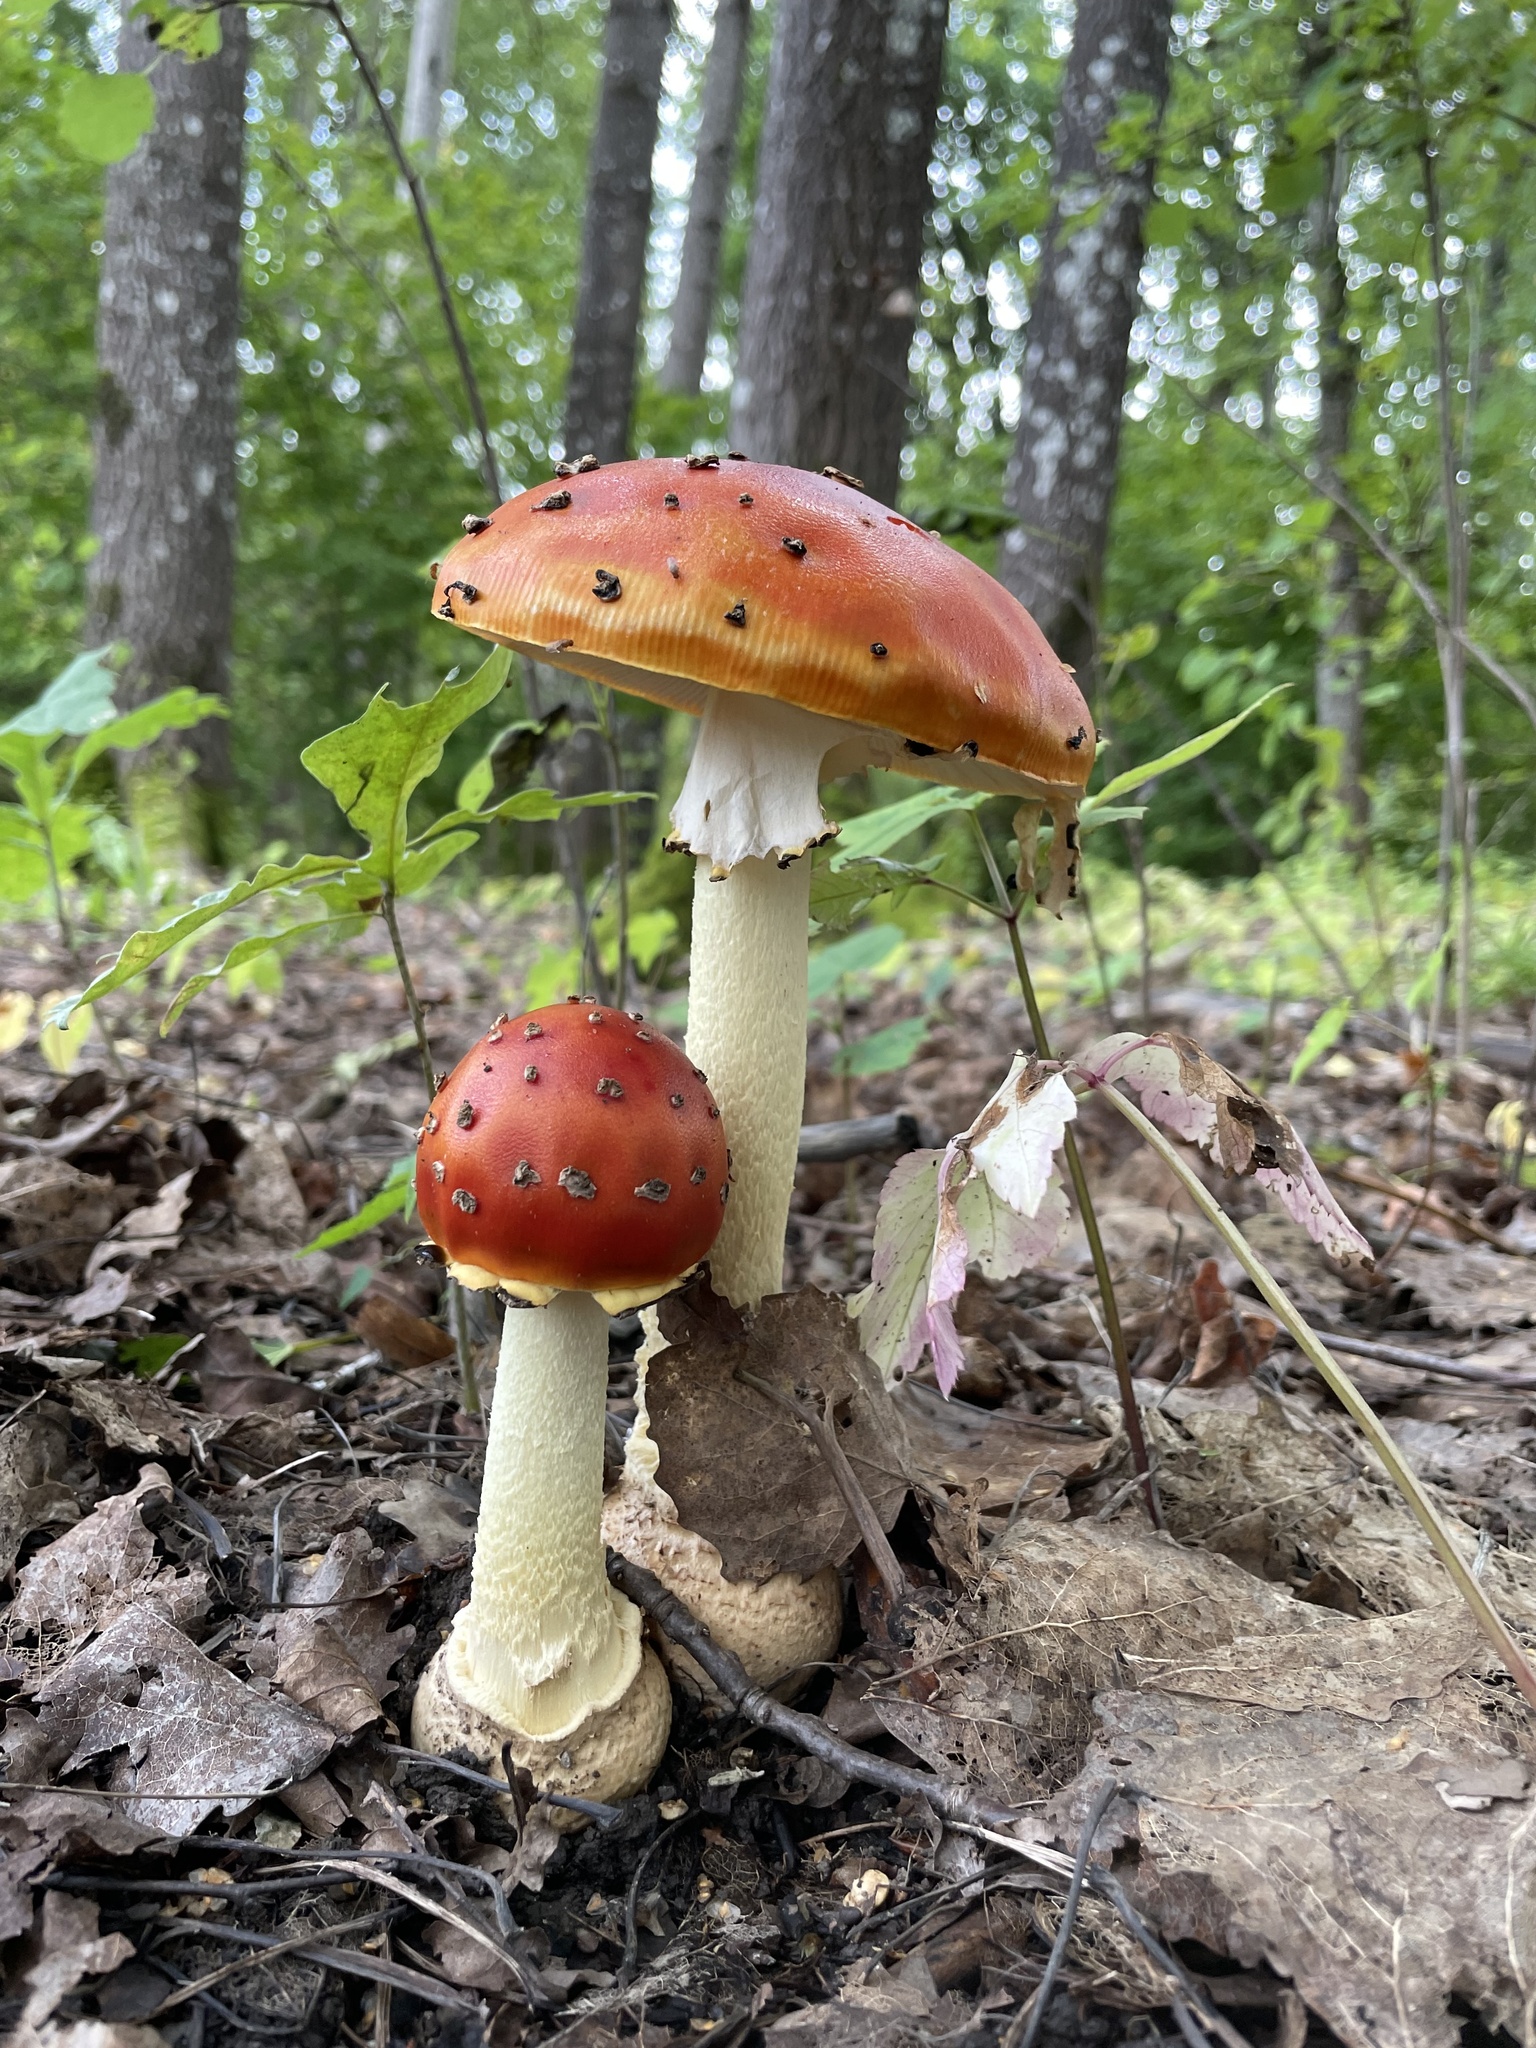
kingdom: Fungi
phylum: Basidiomycota
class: Agaricomycetes
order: Agaricales
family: Amanitaceae
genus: Amanita
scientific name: Amanita muscaria
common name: Fly agaric
